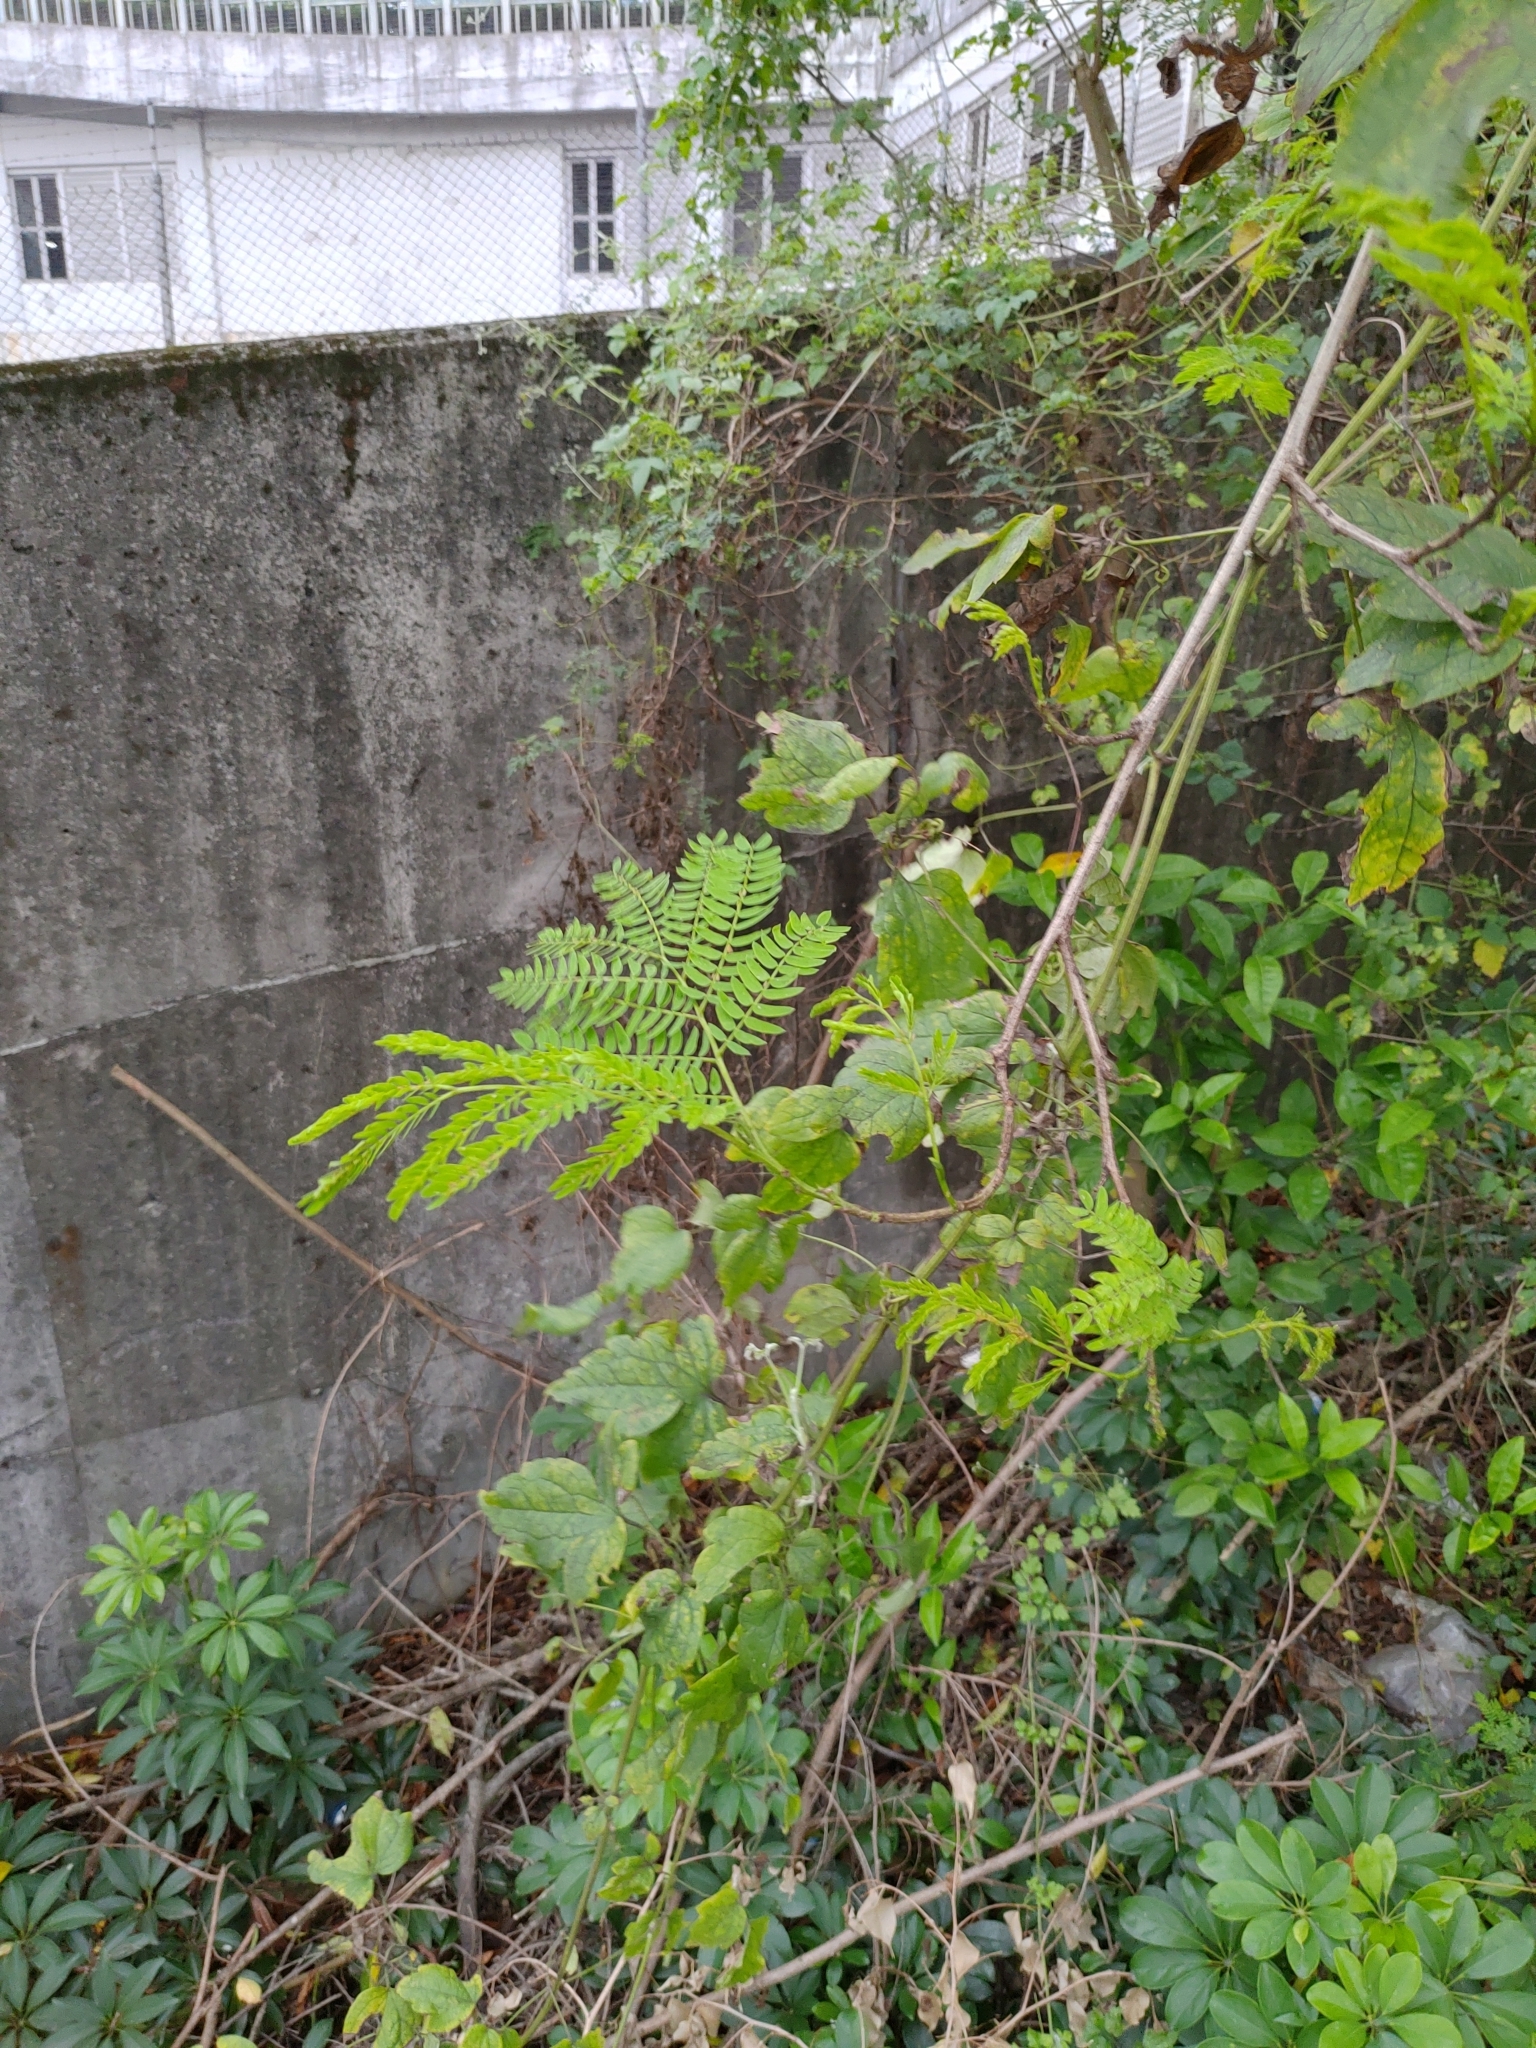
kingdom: Plantae
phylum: Tracheophyta
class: Magnoliopsida
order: Fabales
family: Fabaceae
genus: Leucaena
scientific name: Leucaena leucocephala
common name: White leadtree
